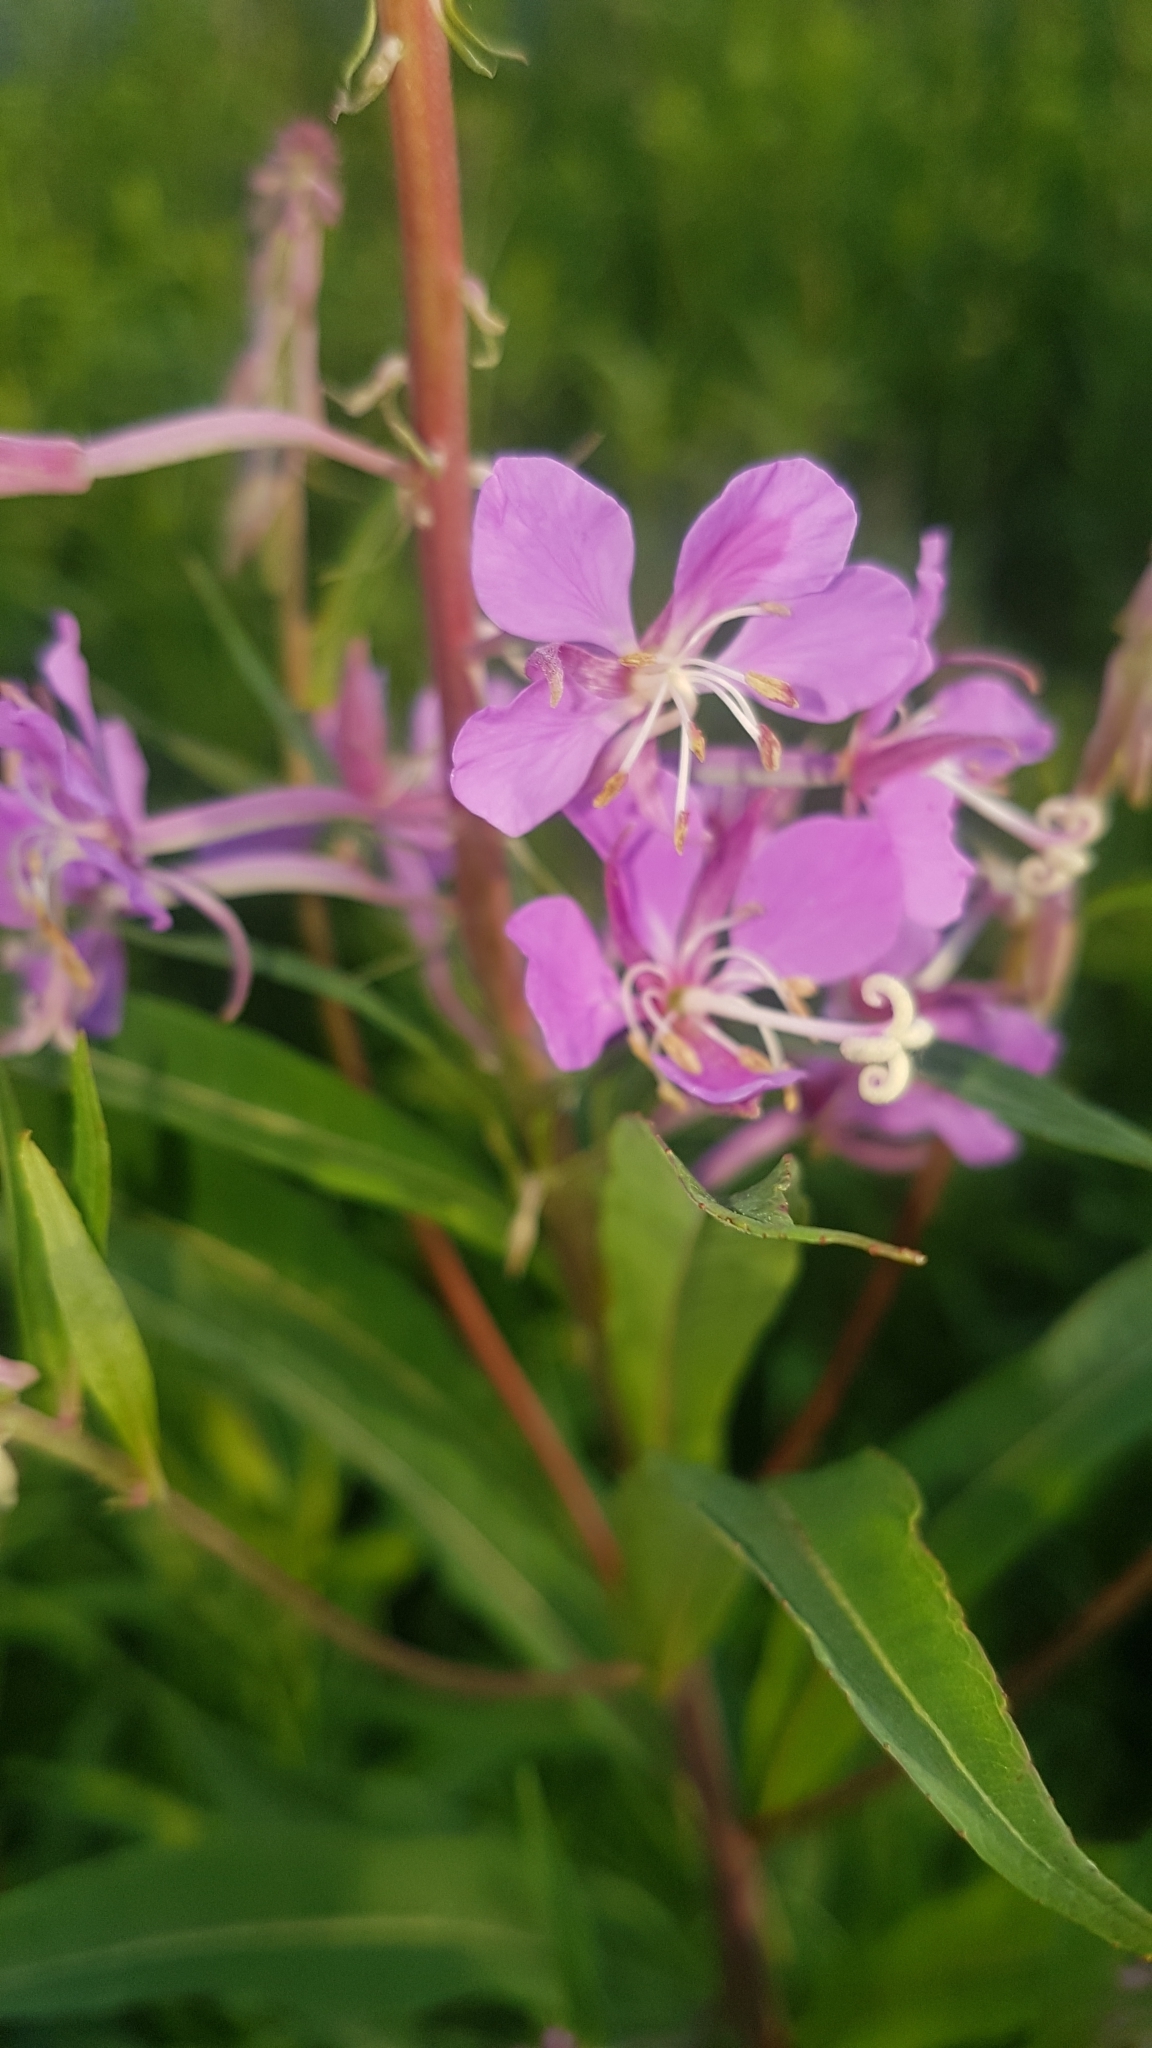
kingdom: Plantae
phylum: Tracheophyta
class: Magnoliopsida
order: Myrtales
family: Onagraceae
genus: Chamaenerion
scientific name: Chamaenerion angustifolium
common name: Fireweed
